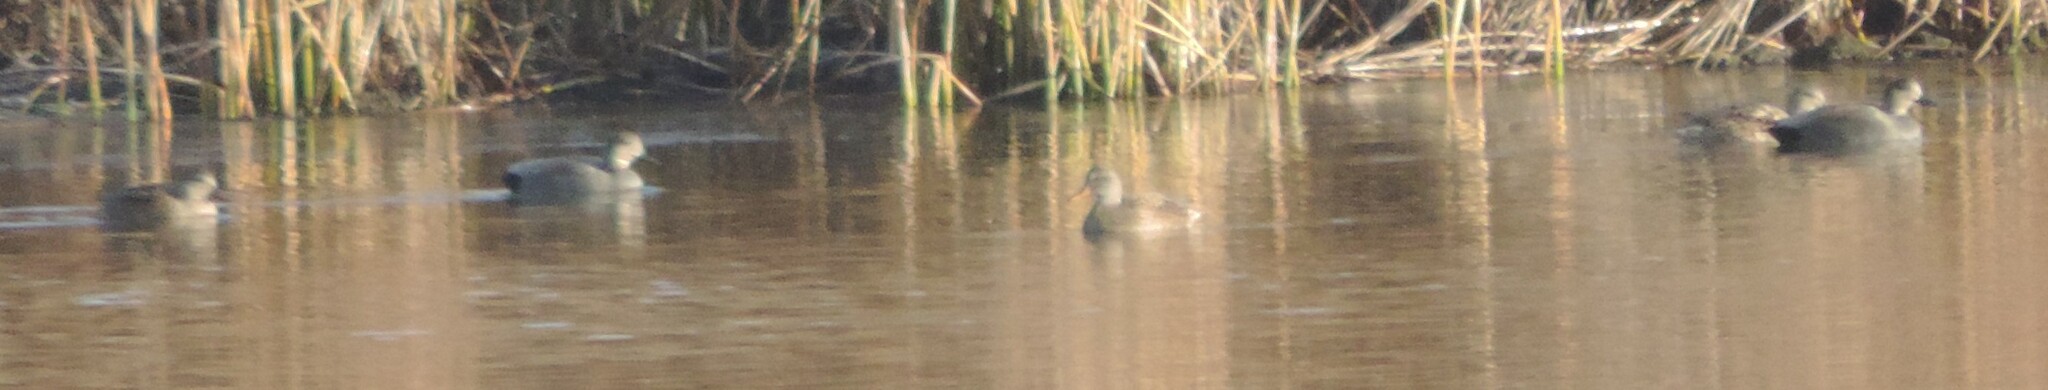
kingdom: Animalia
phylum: Chordata
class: Aves
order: Anseriformes
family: Anatidae
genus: Mareca
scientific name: Mareca strepera
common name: Gadwall
